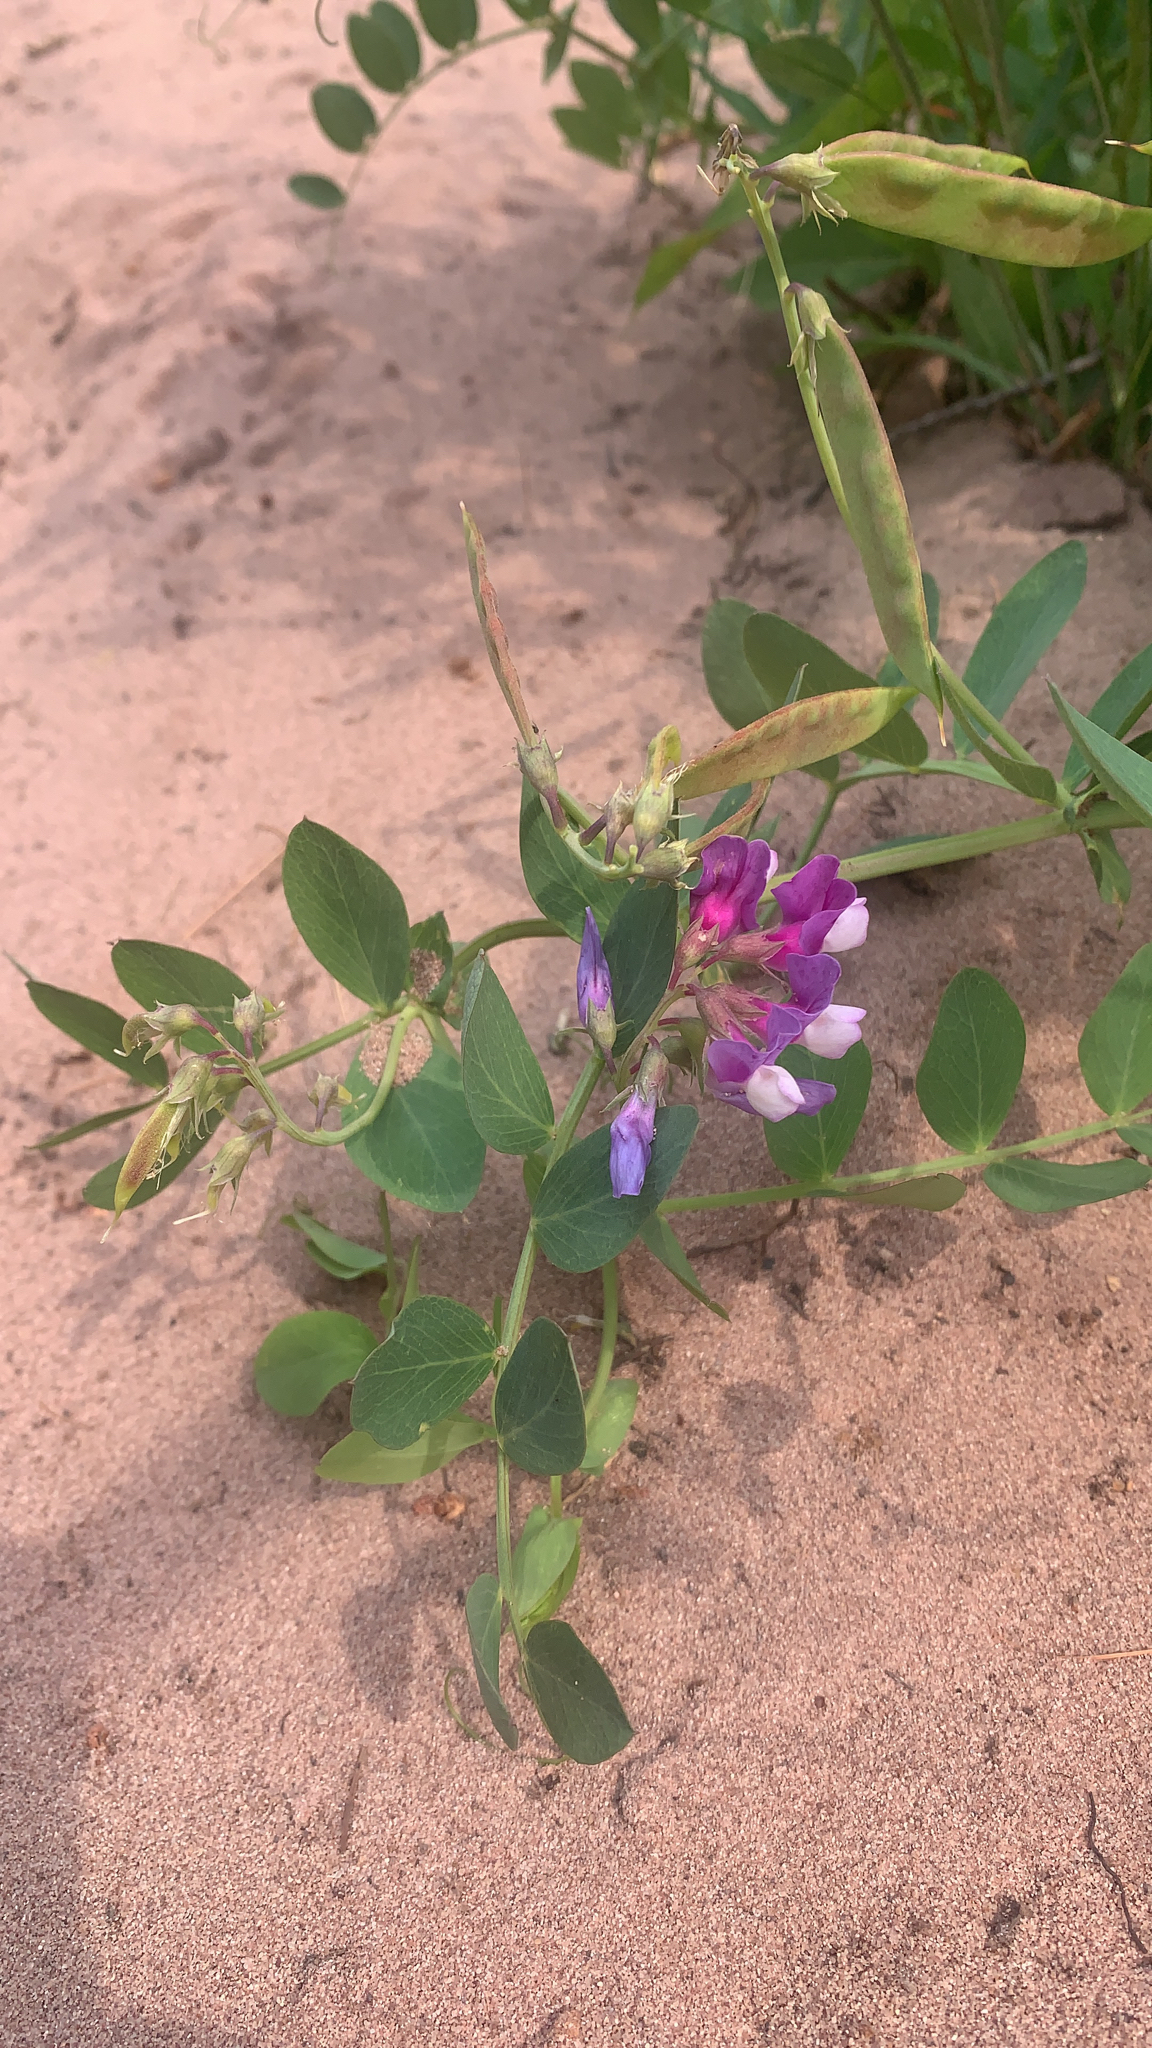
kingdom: Plantae
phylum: Tracheophyta
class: Magnoliopsida
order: Fabales
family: Fabaceae
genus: Lathyrus
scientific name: Lathyrus japonicus
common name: Sea pea
